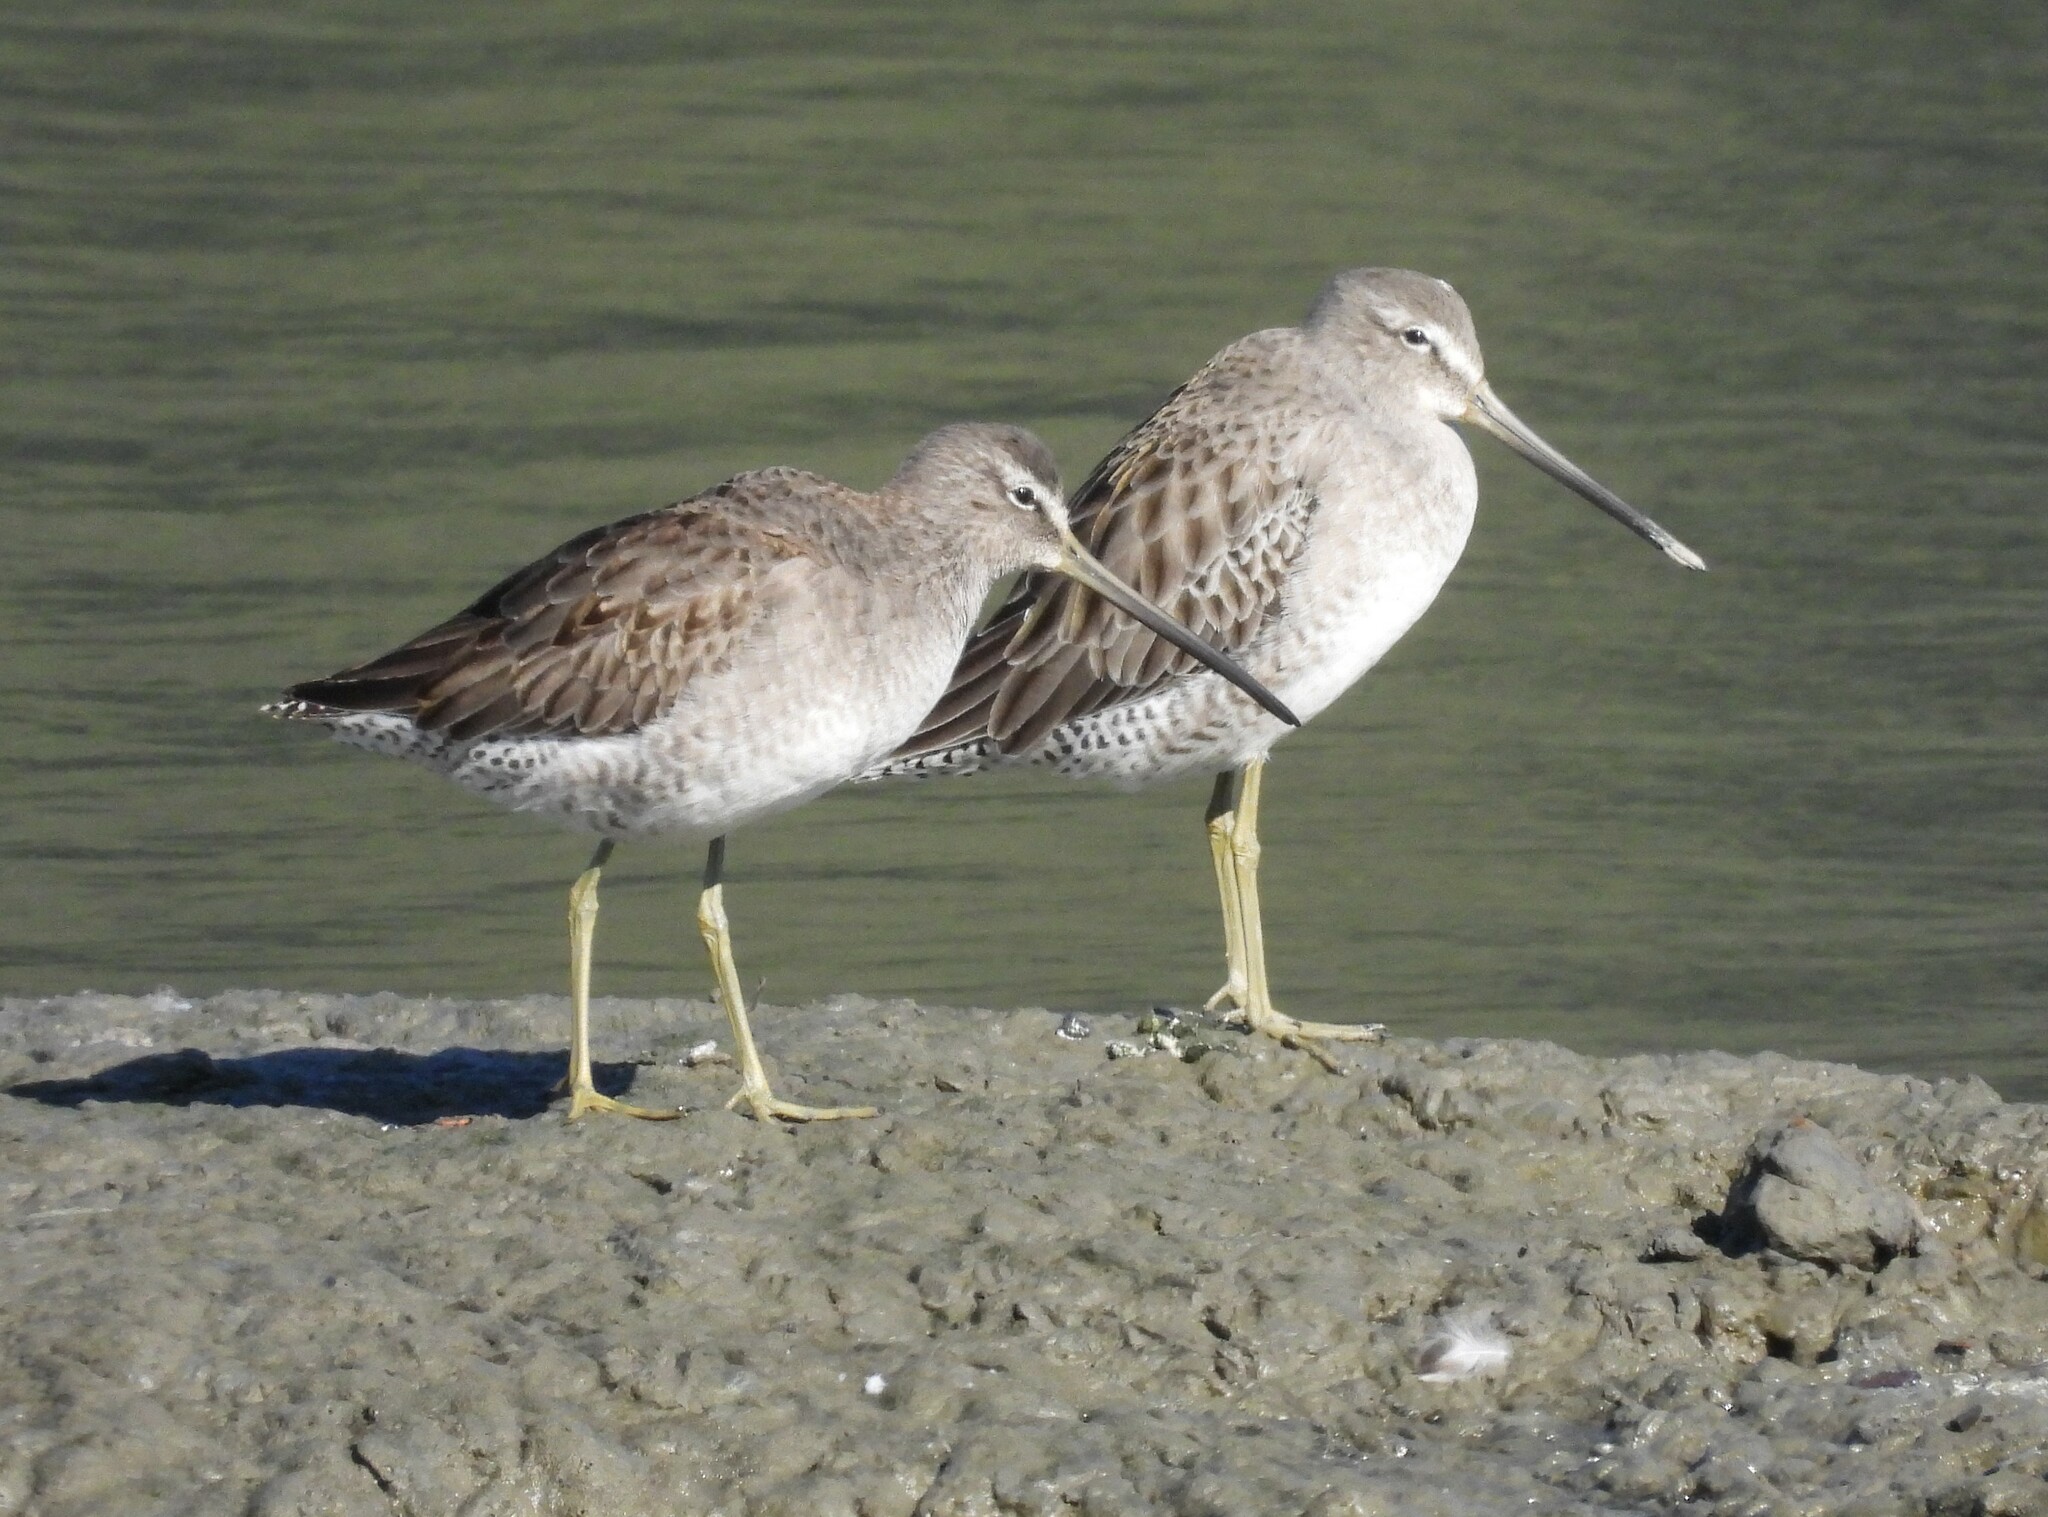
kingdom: Animalia
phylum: Chordata
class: Aves
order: Charadriiformes
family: Scolopacidae
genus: Limnodromus
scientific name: Limnodromus scolopaceus
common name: Long-billed dowitcher
